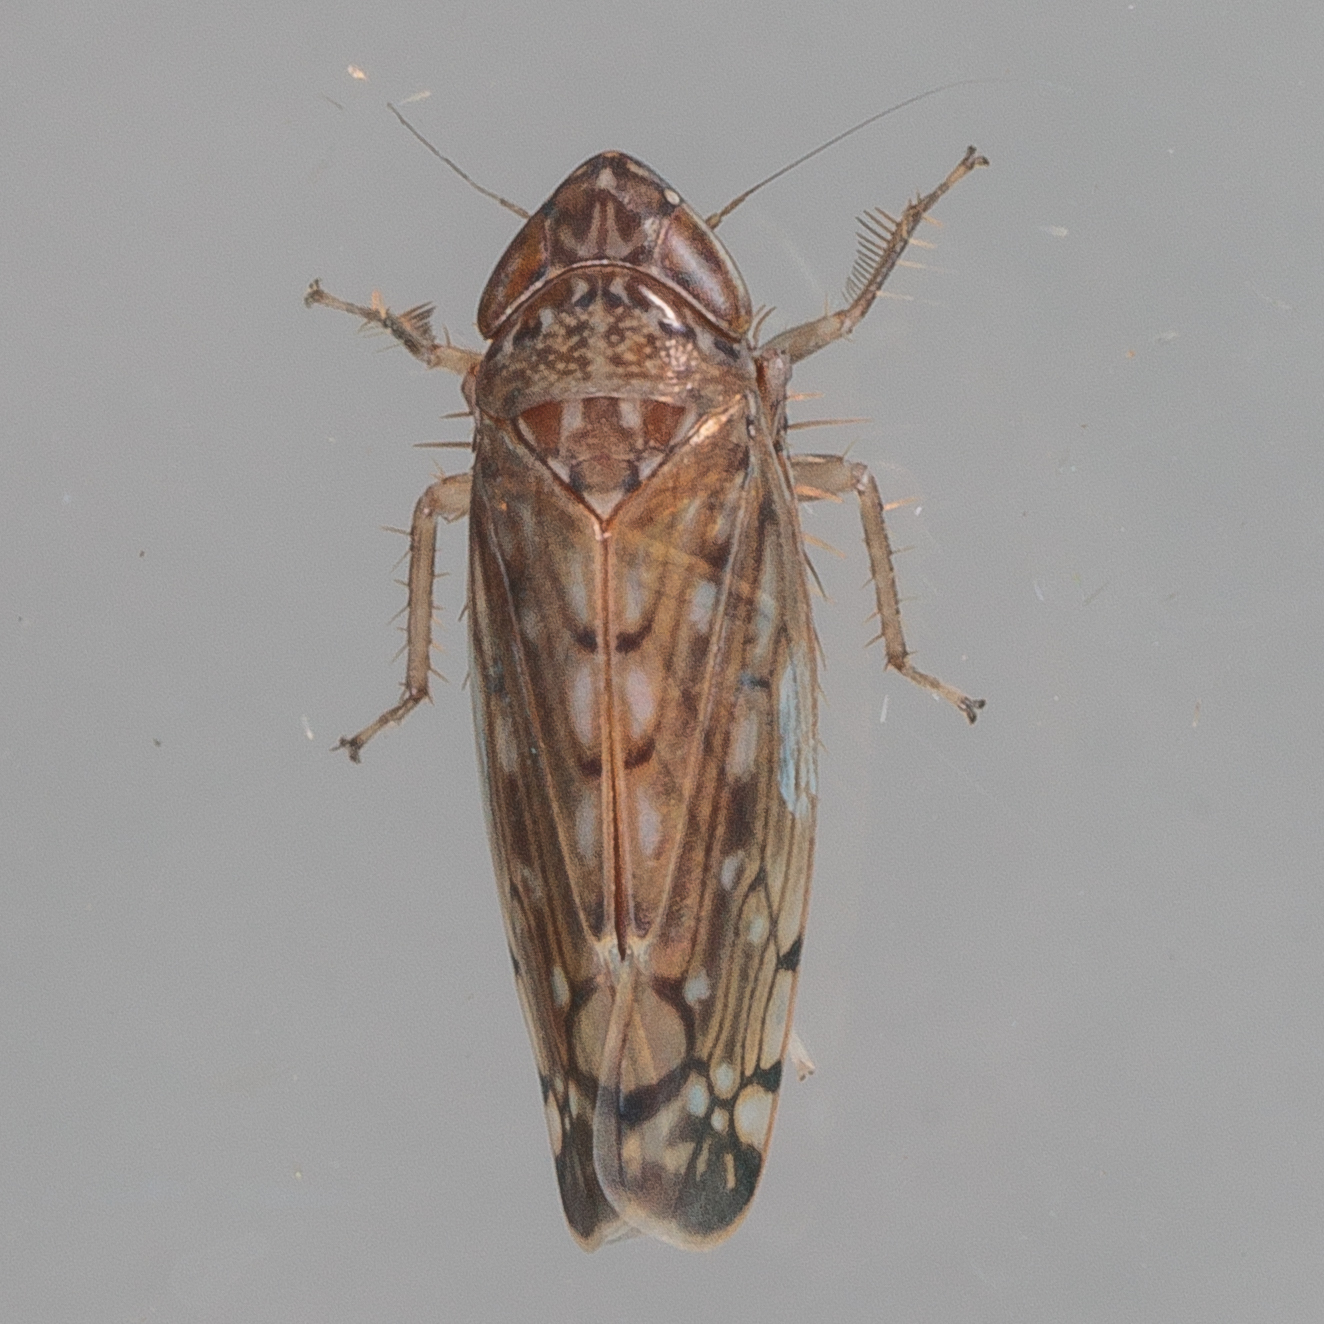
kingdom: Animalia
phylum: Arthropoda
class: Insecta
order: Hemiptera
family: Cicadellidae
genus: Osbornellus
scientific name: Osbornellus filamenta
